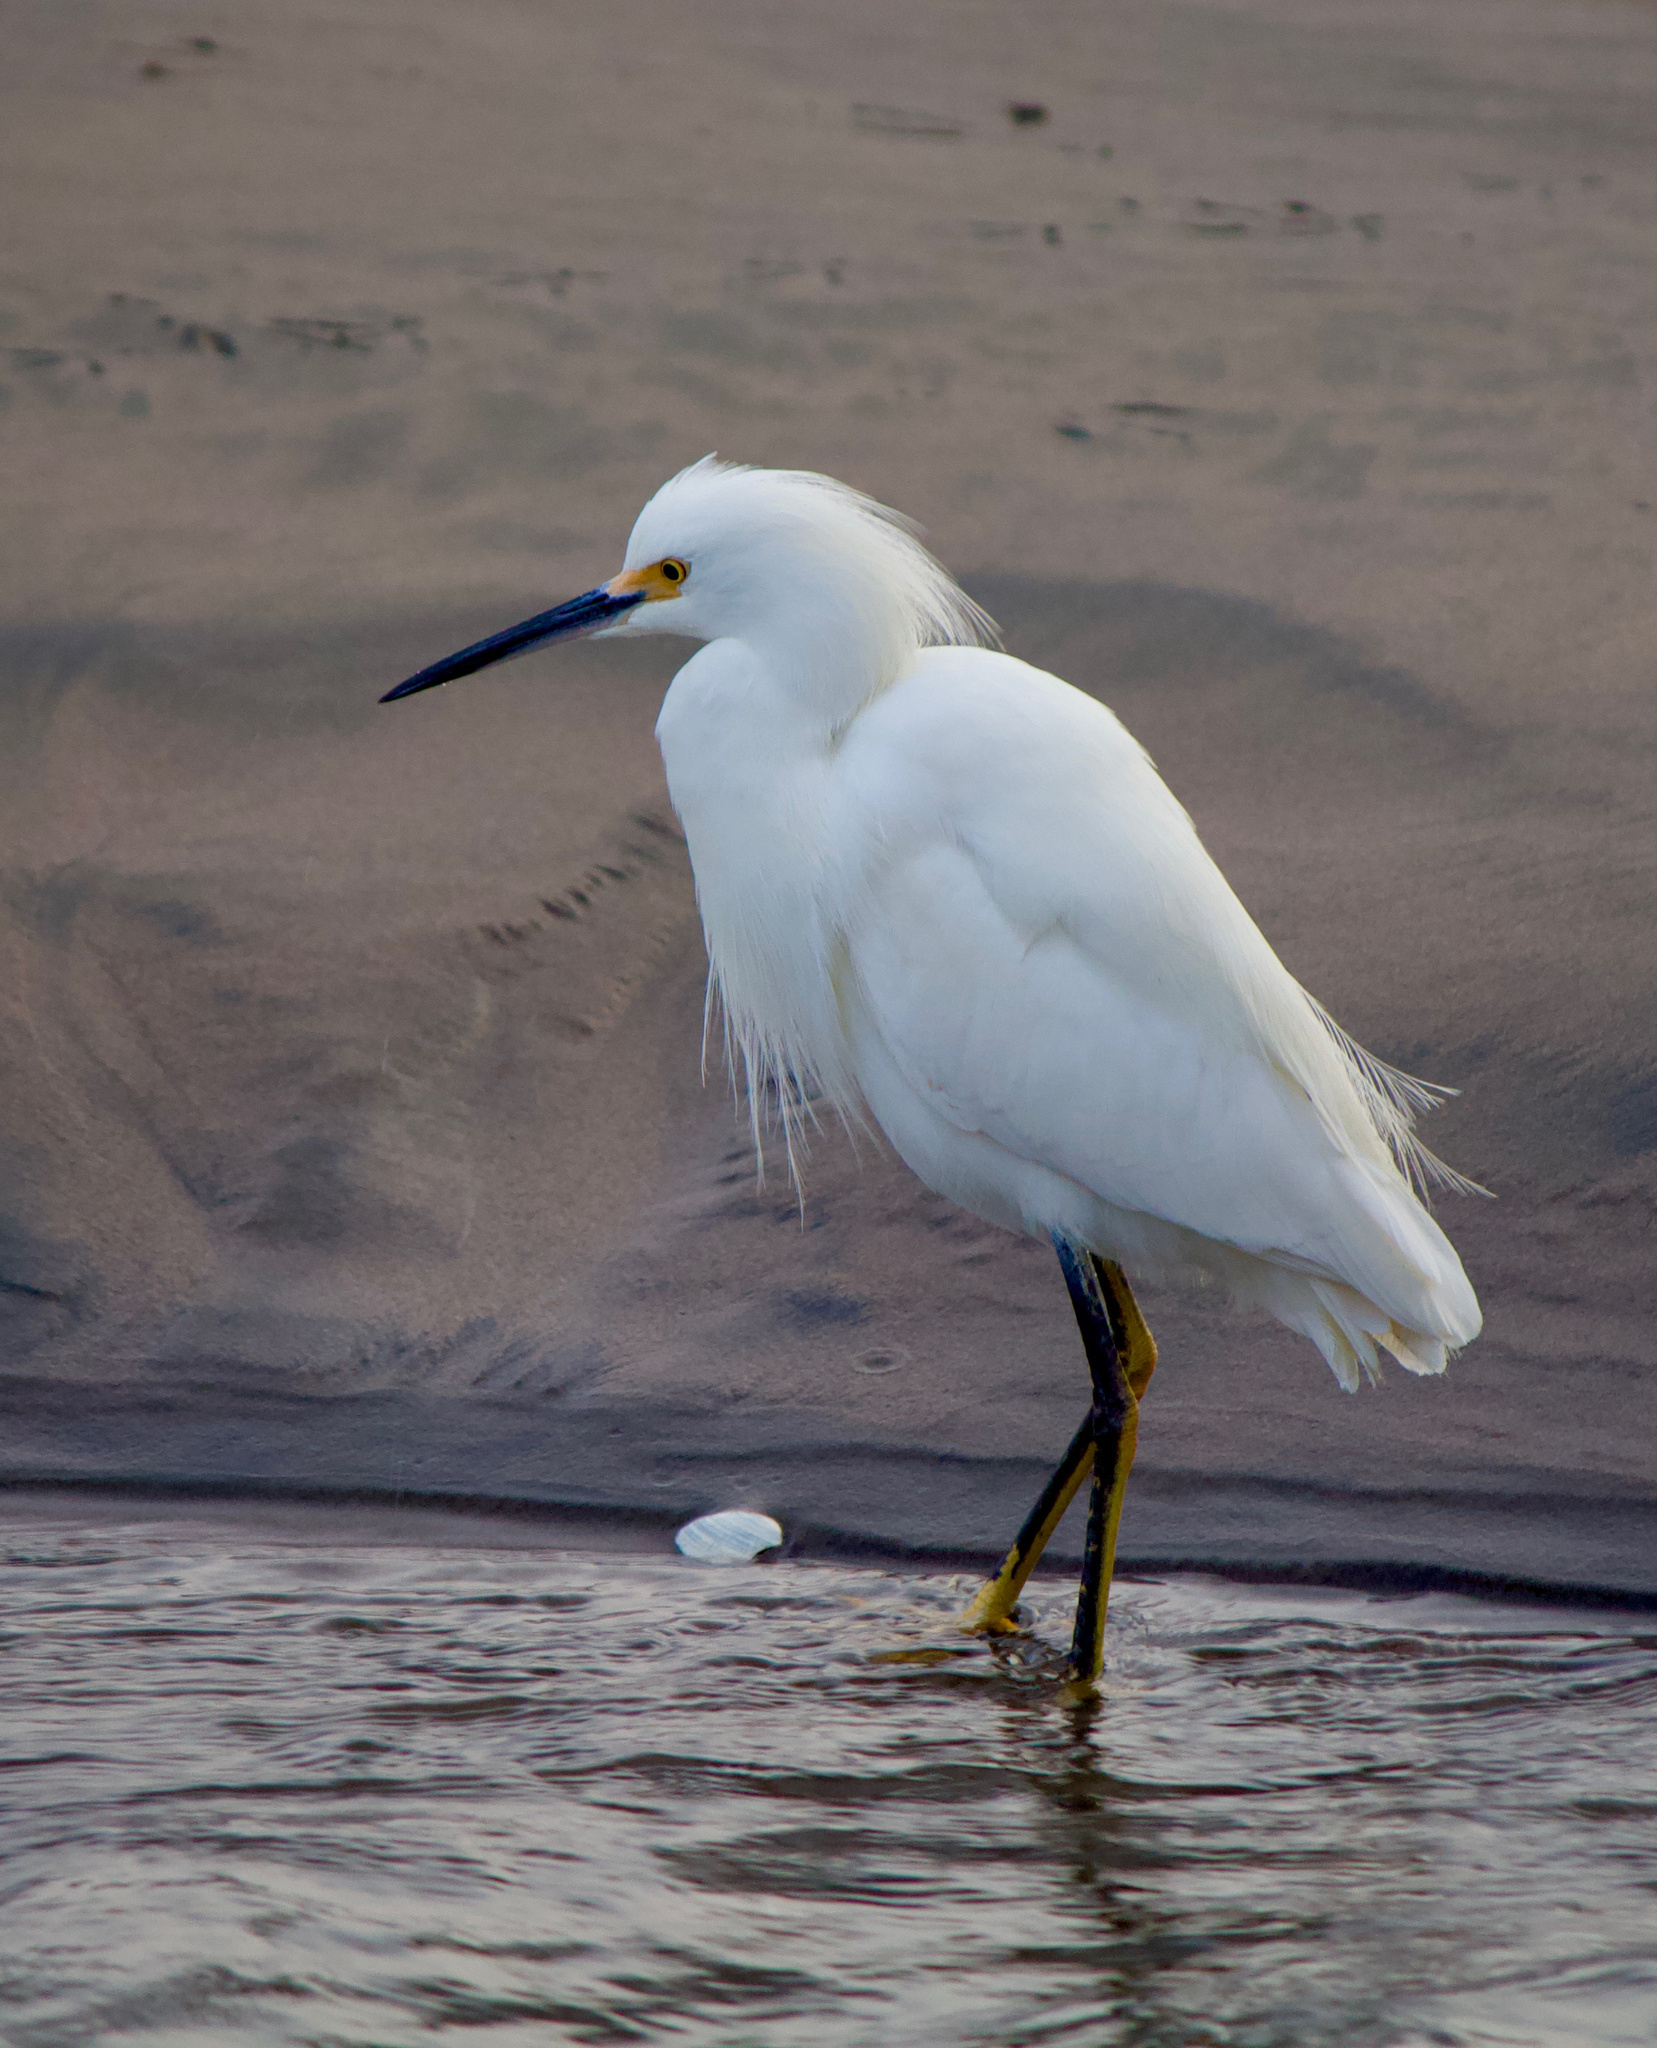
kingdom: Animalia
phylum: Chordata
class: Aves
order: Pelecaniformes
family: Ardeidae
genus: Egretta
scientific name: Egretta thula
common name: Snowy egret
